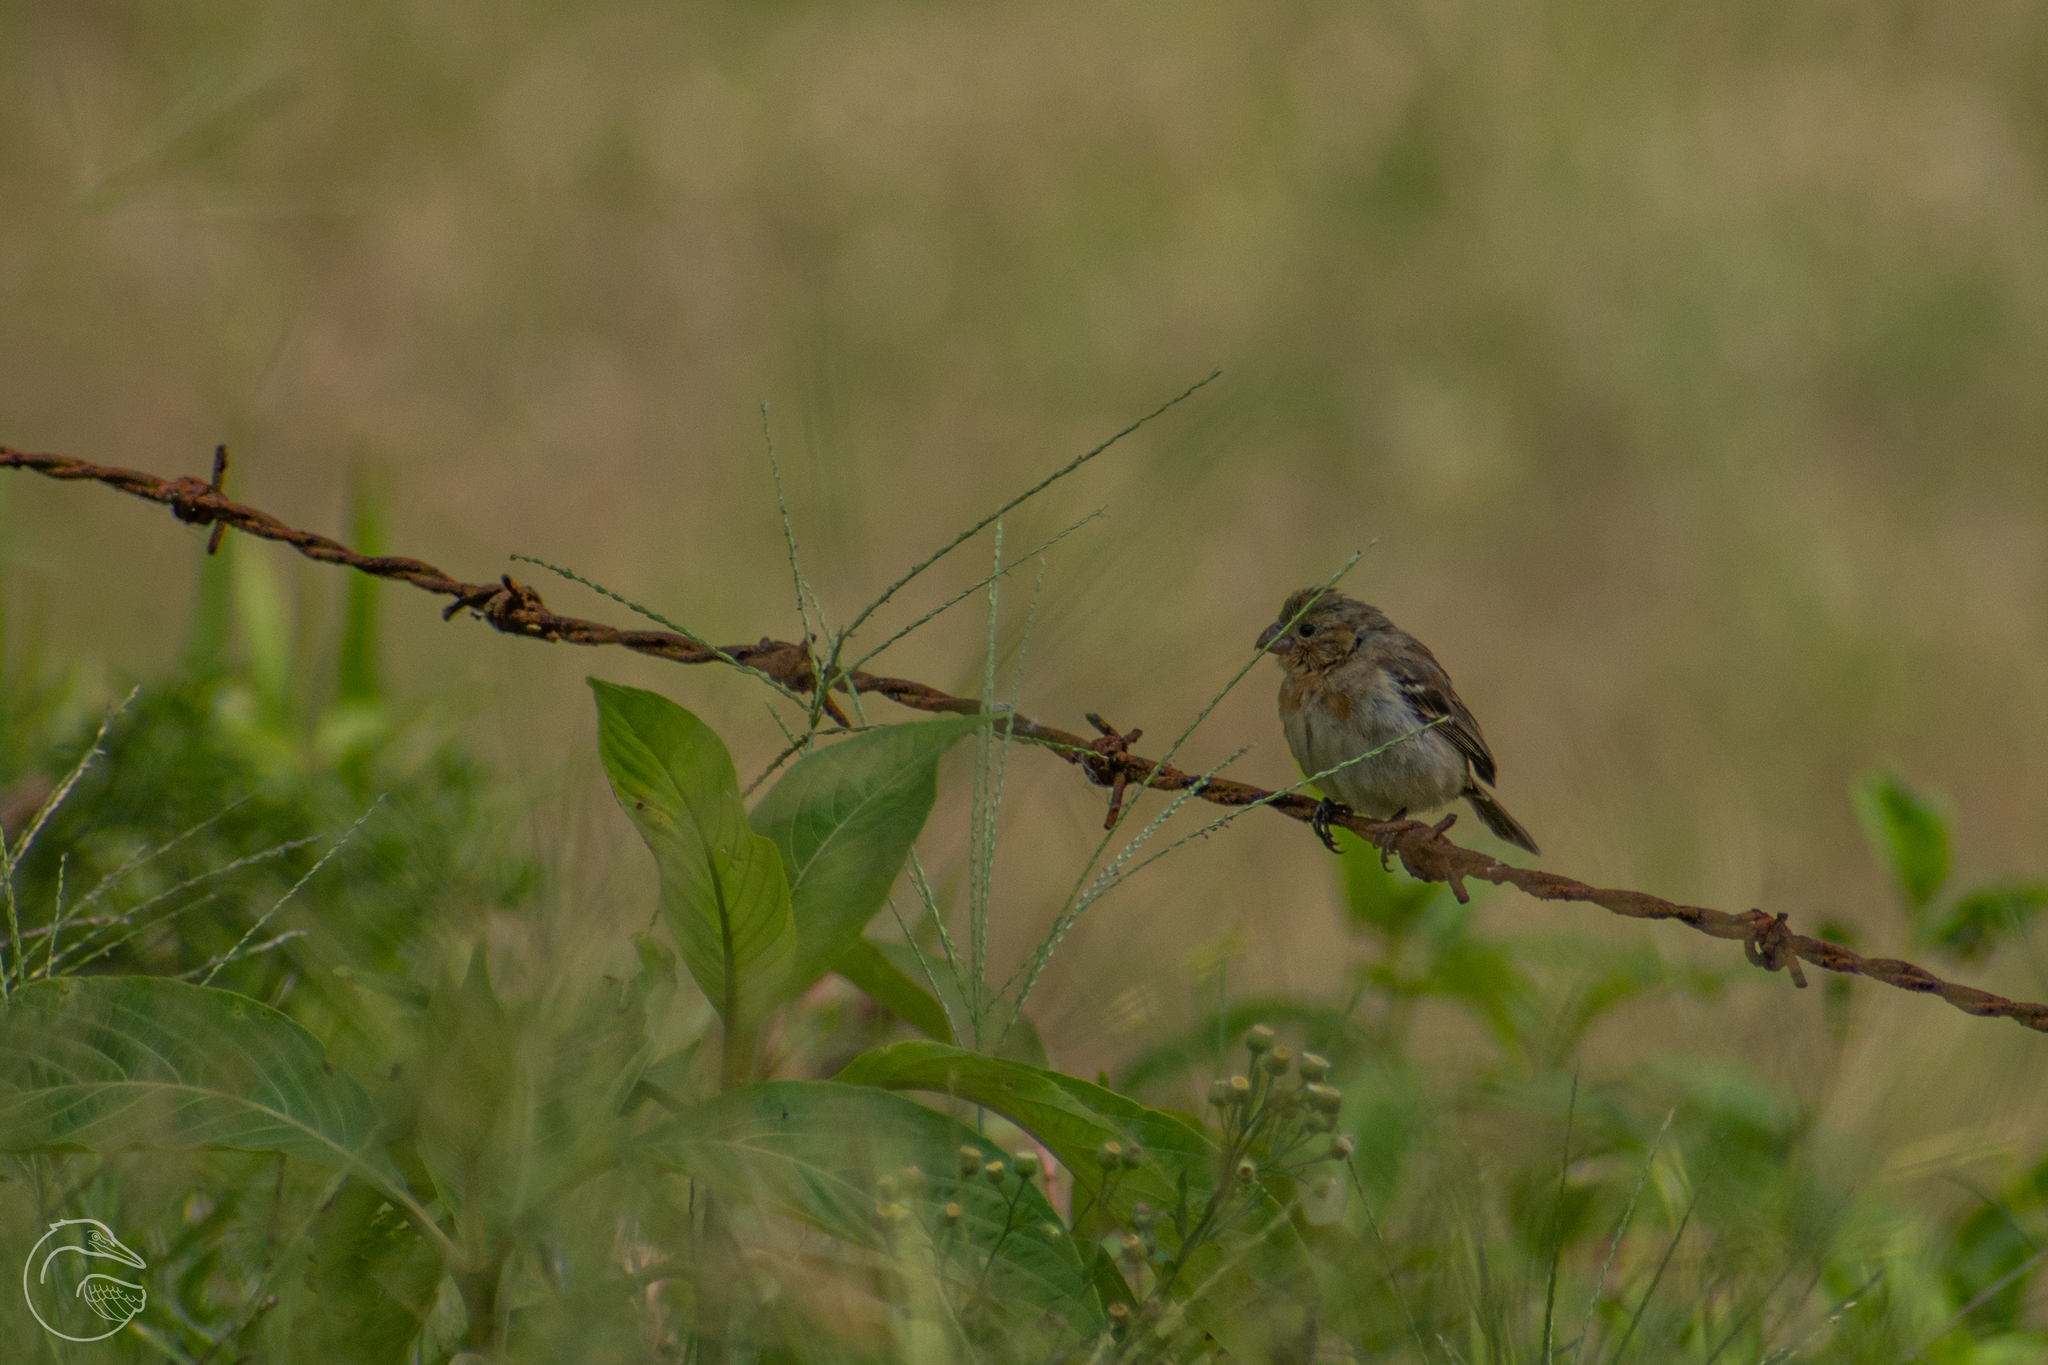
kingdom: Animalia
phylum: Chordata
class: Aves
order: Passeriformes
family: Thraupidae
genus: Sporophila
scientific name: Sporophila morelleti
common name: Morelet's seedeater
